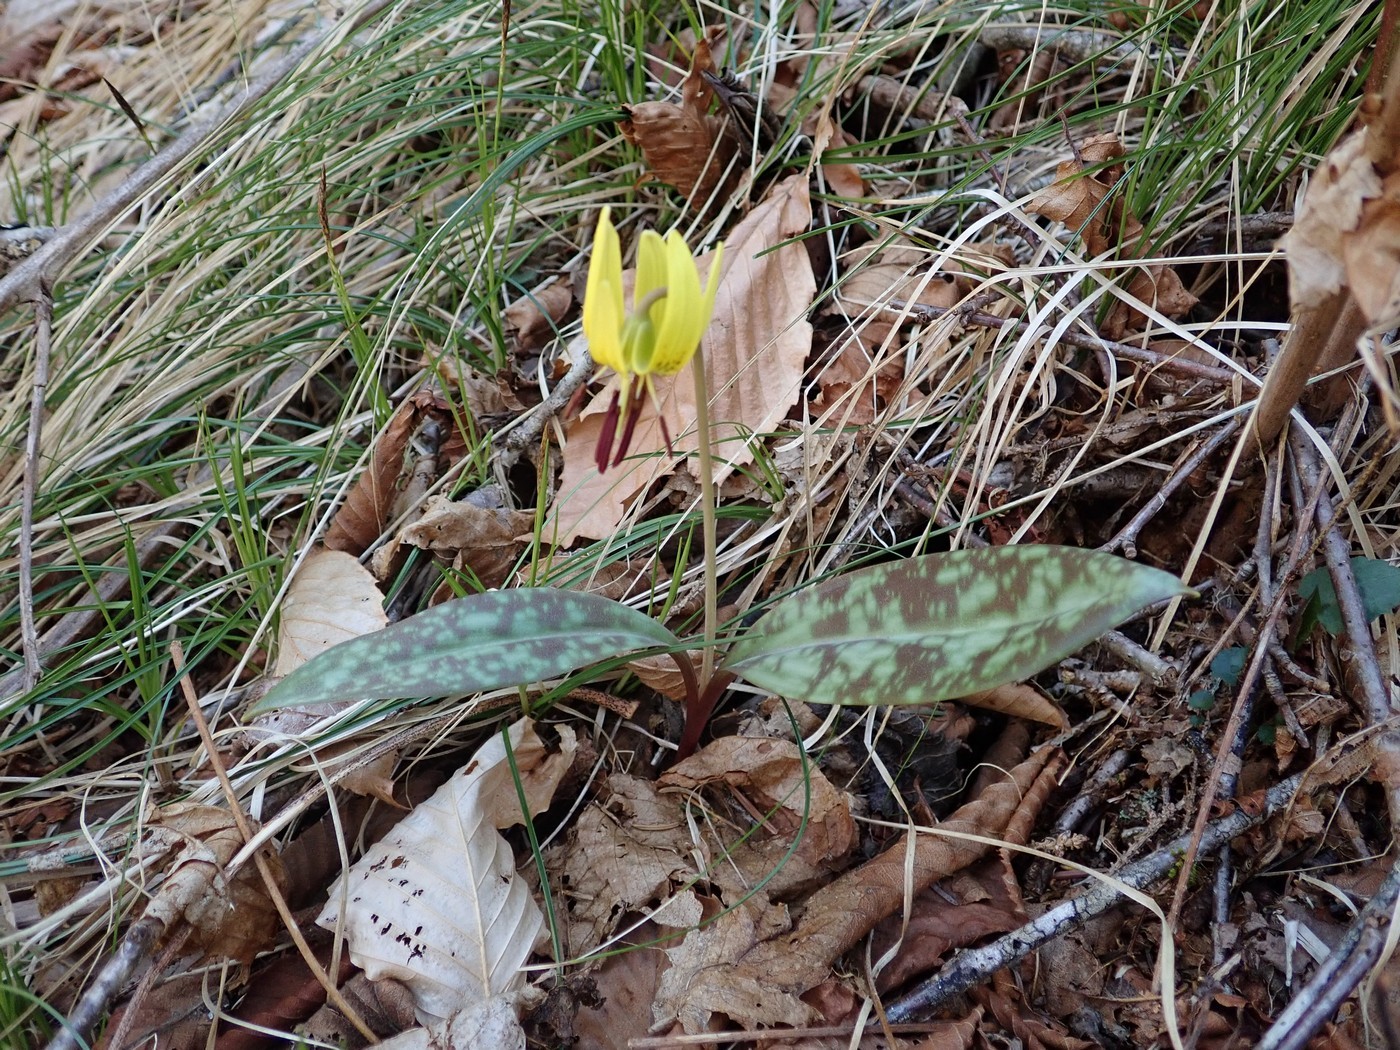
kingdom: Plantae
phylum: Tracheophyta
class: Liliopsida
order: Liliales
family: Liliaceae
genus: Erythronium
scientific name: Erythronium umbilicatum
